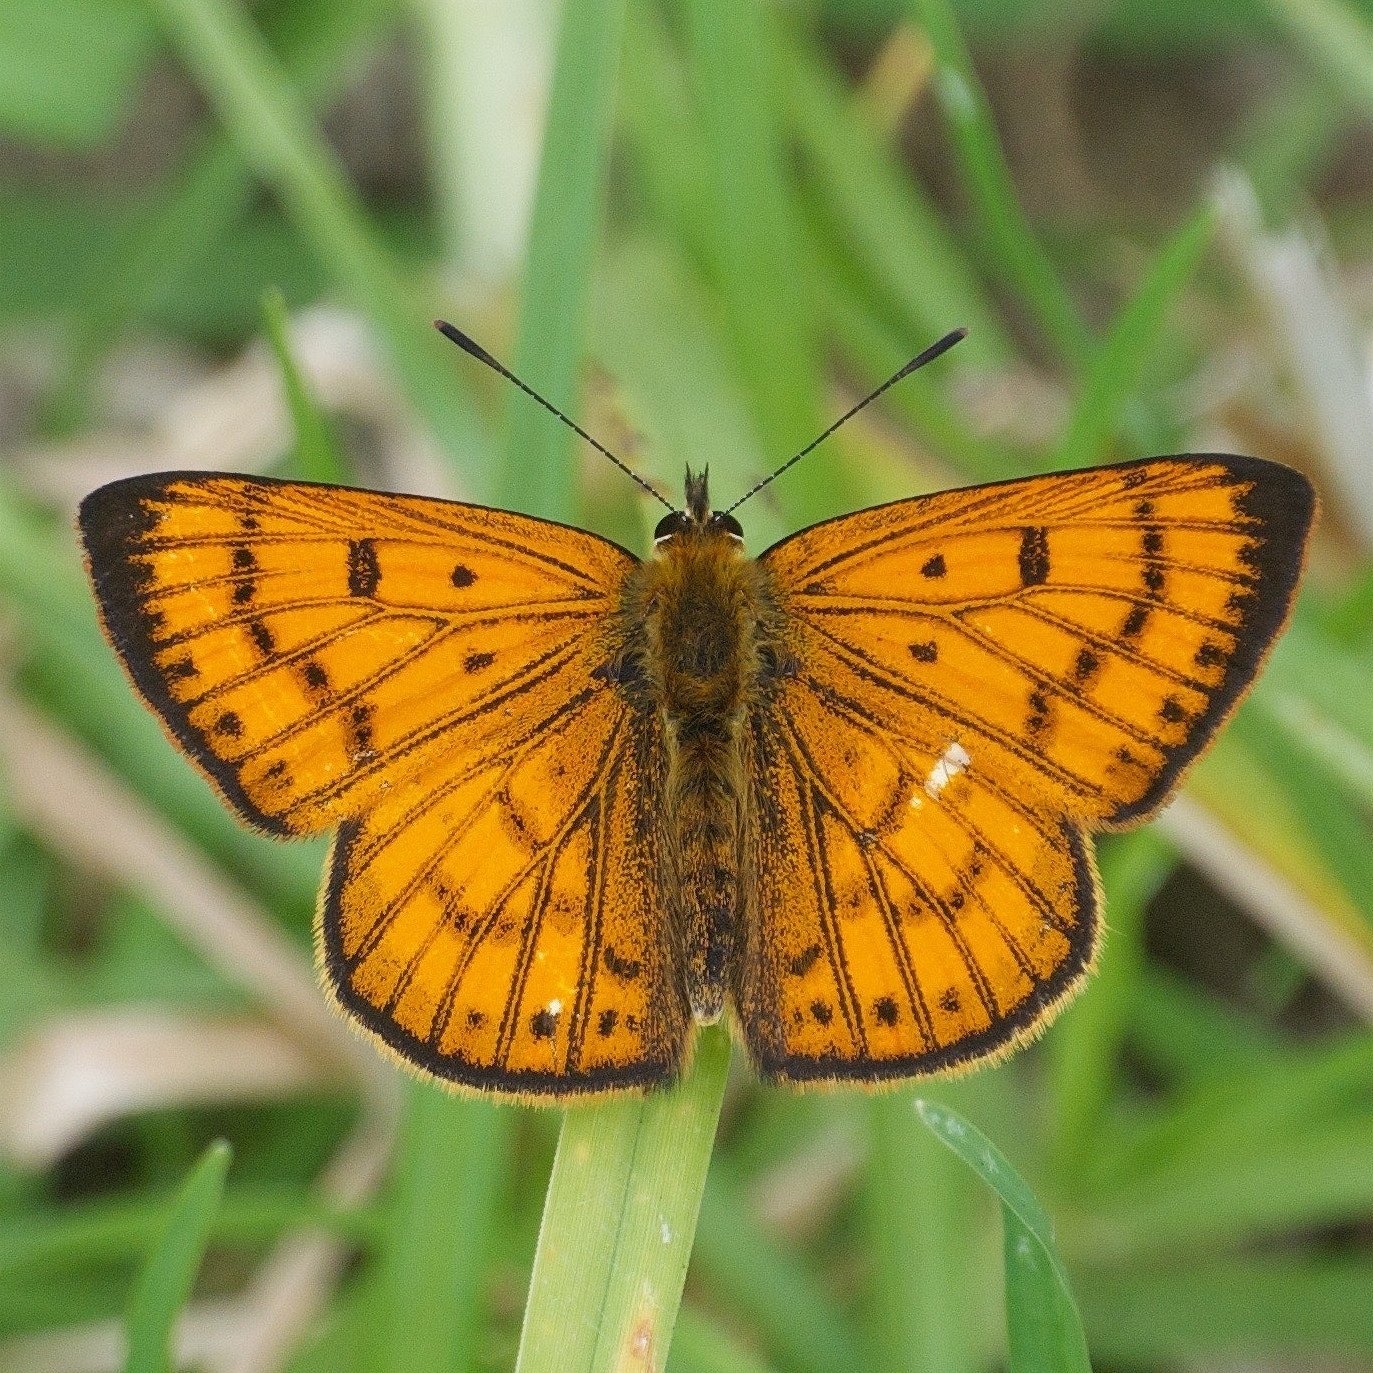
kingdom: Animalia
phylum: Arthropoda
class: Insecta
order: Lepidoptera
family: Lycaenidae
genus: Lycaena
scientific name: Lycaena salustius
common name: North island coastal copper
